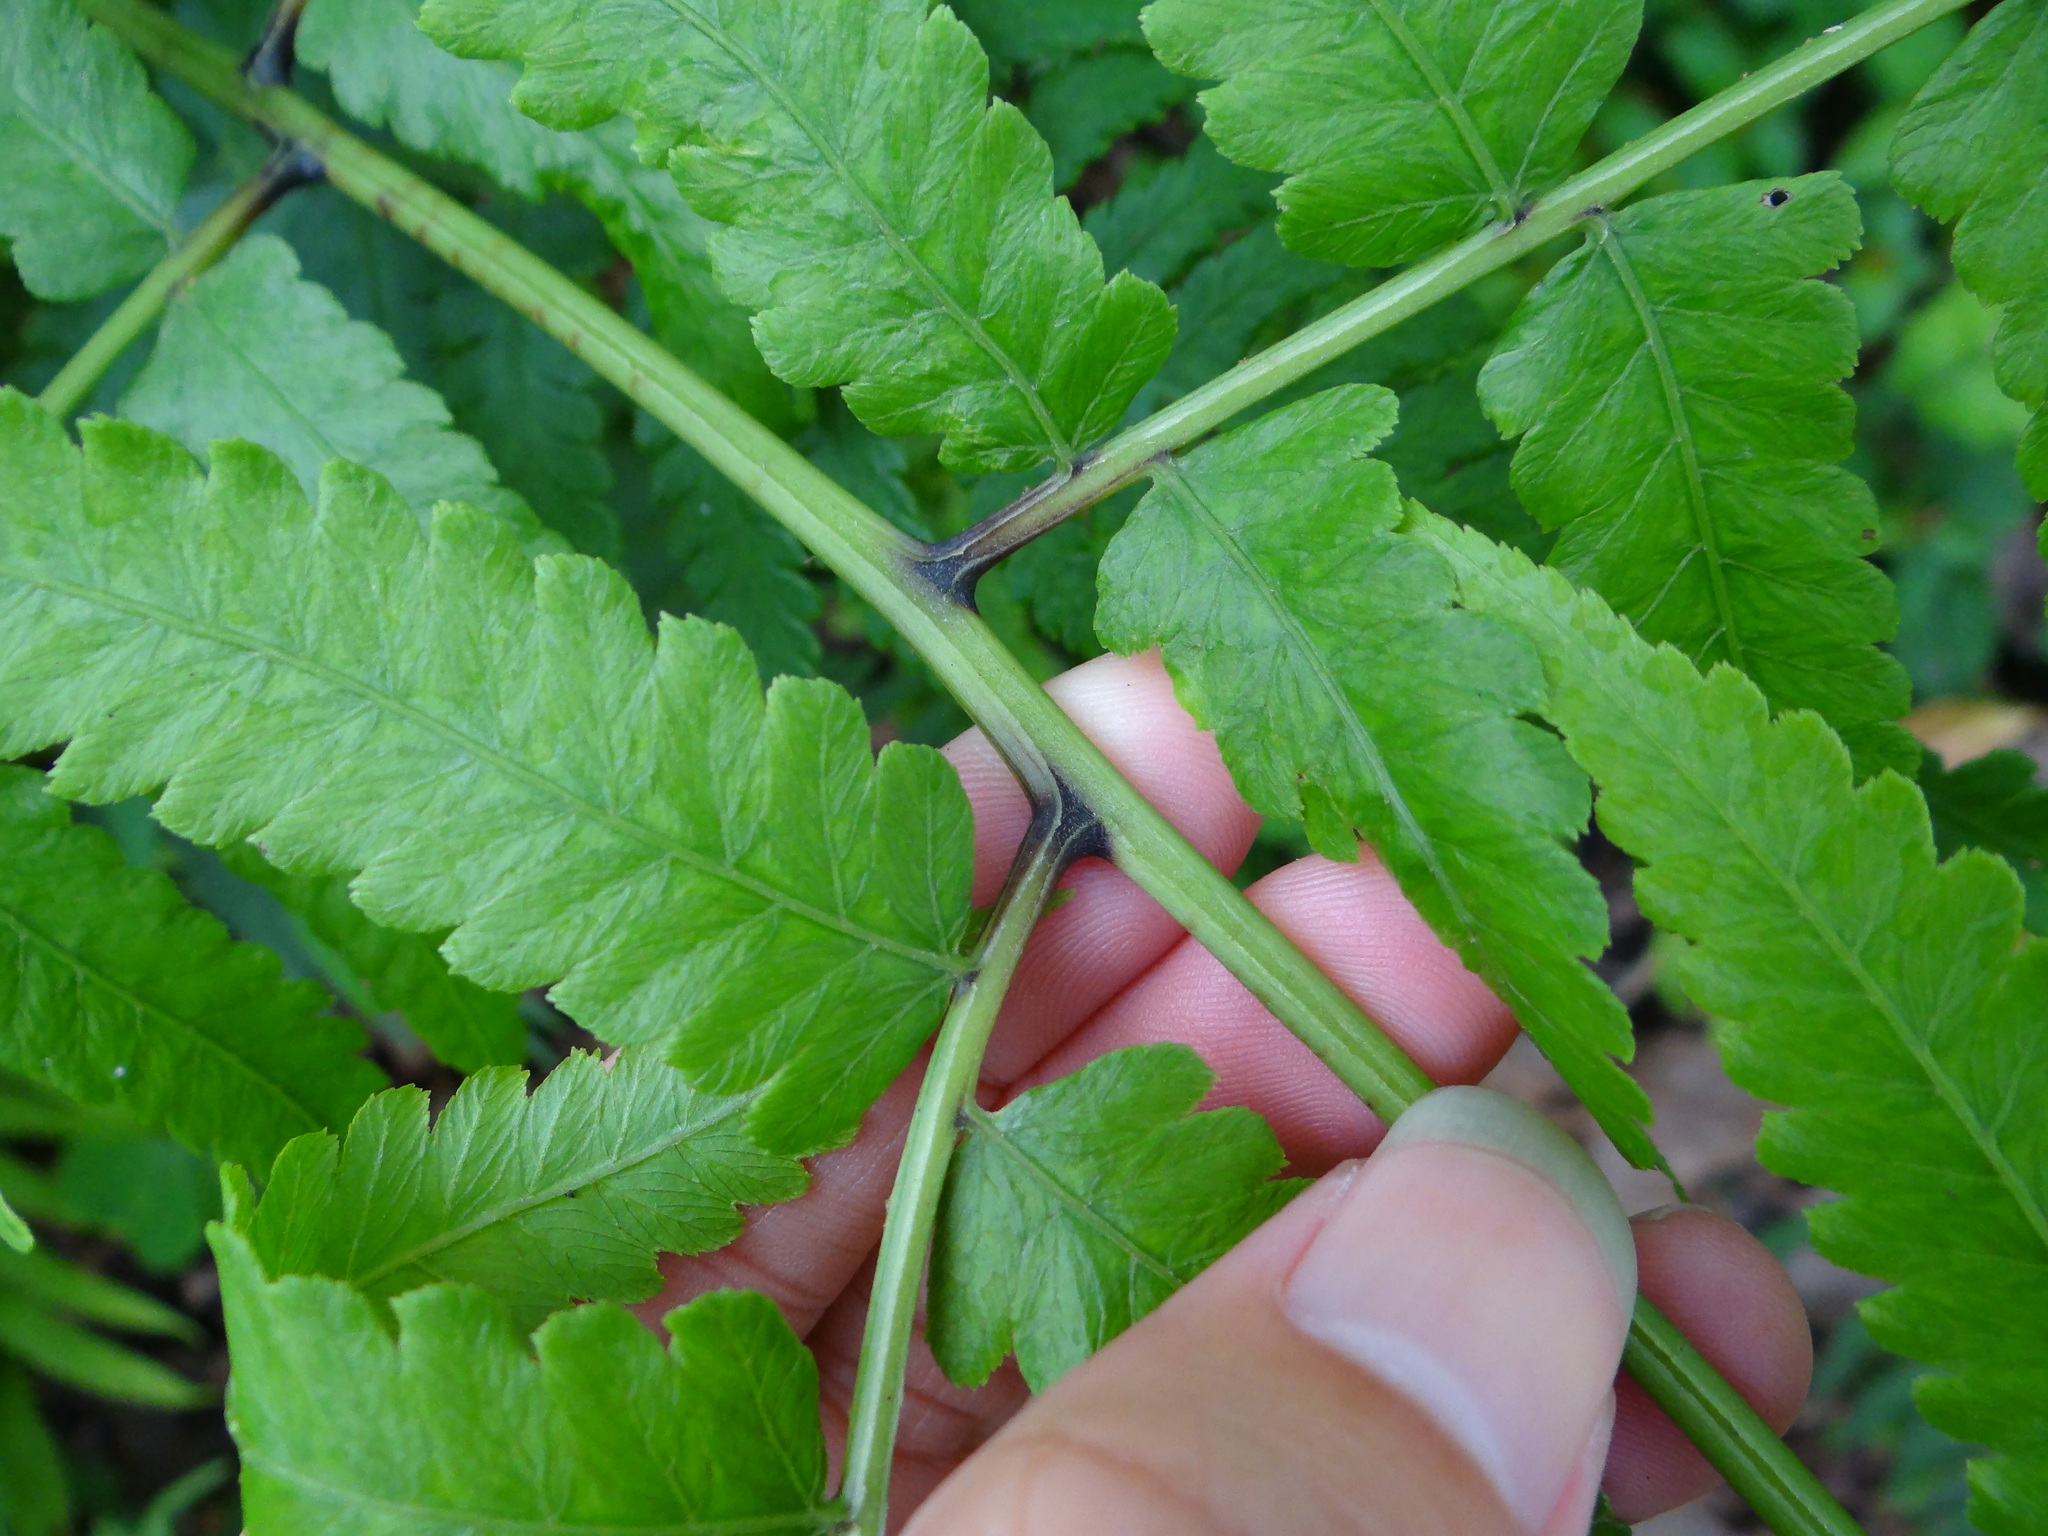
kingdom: Plantae
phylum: Tracheophyta
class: Polypodiopsida
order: Polypodiales
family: Athyriaceae
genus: Diplazium
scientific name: Diplazium esculentum
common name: Vegetable fern
